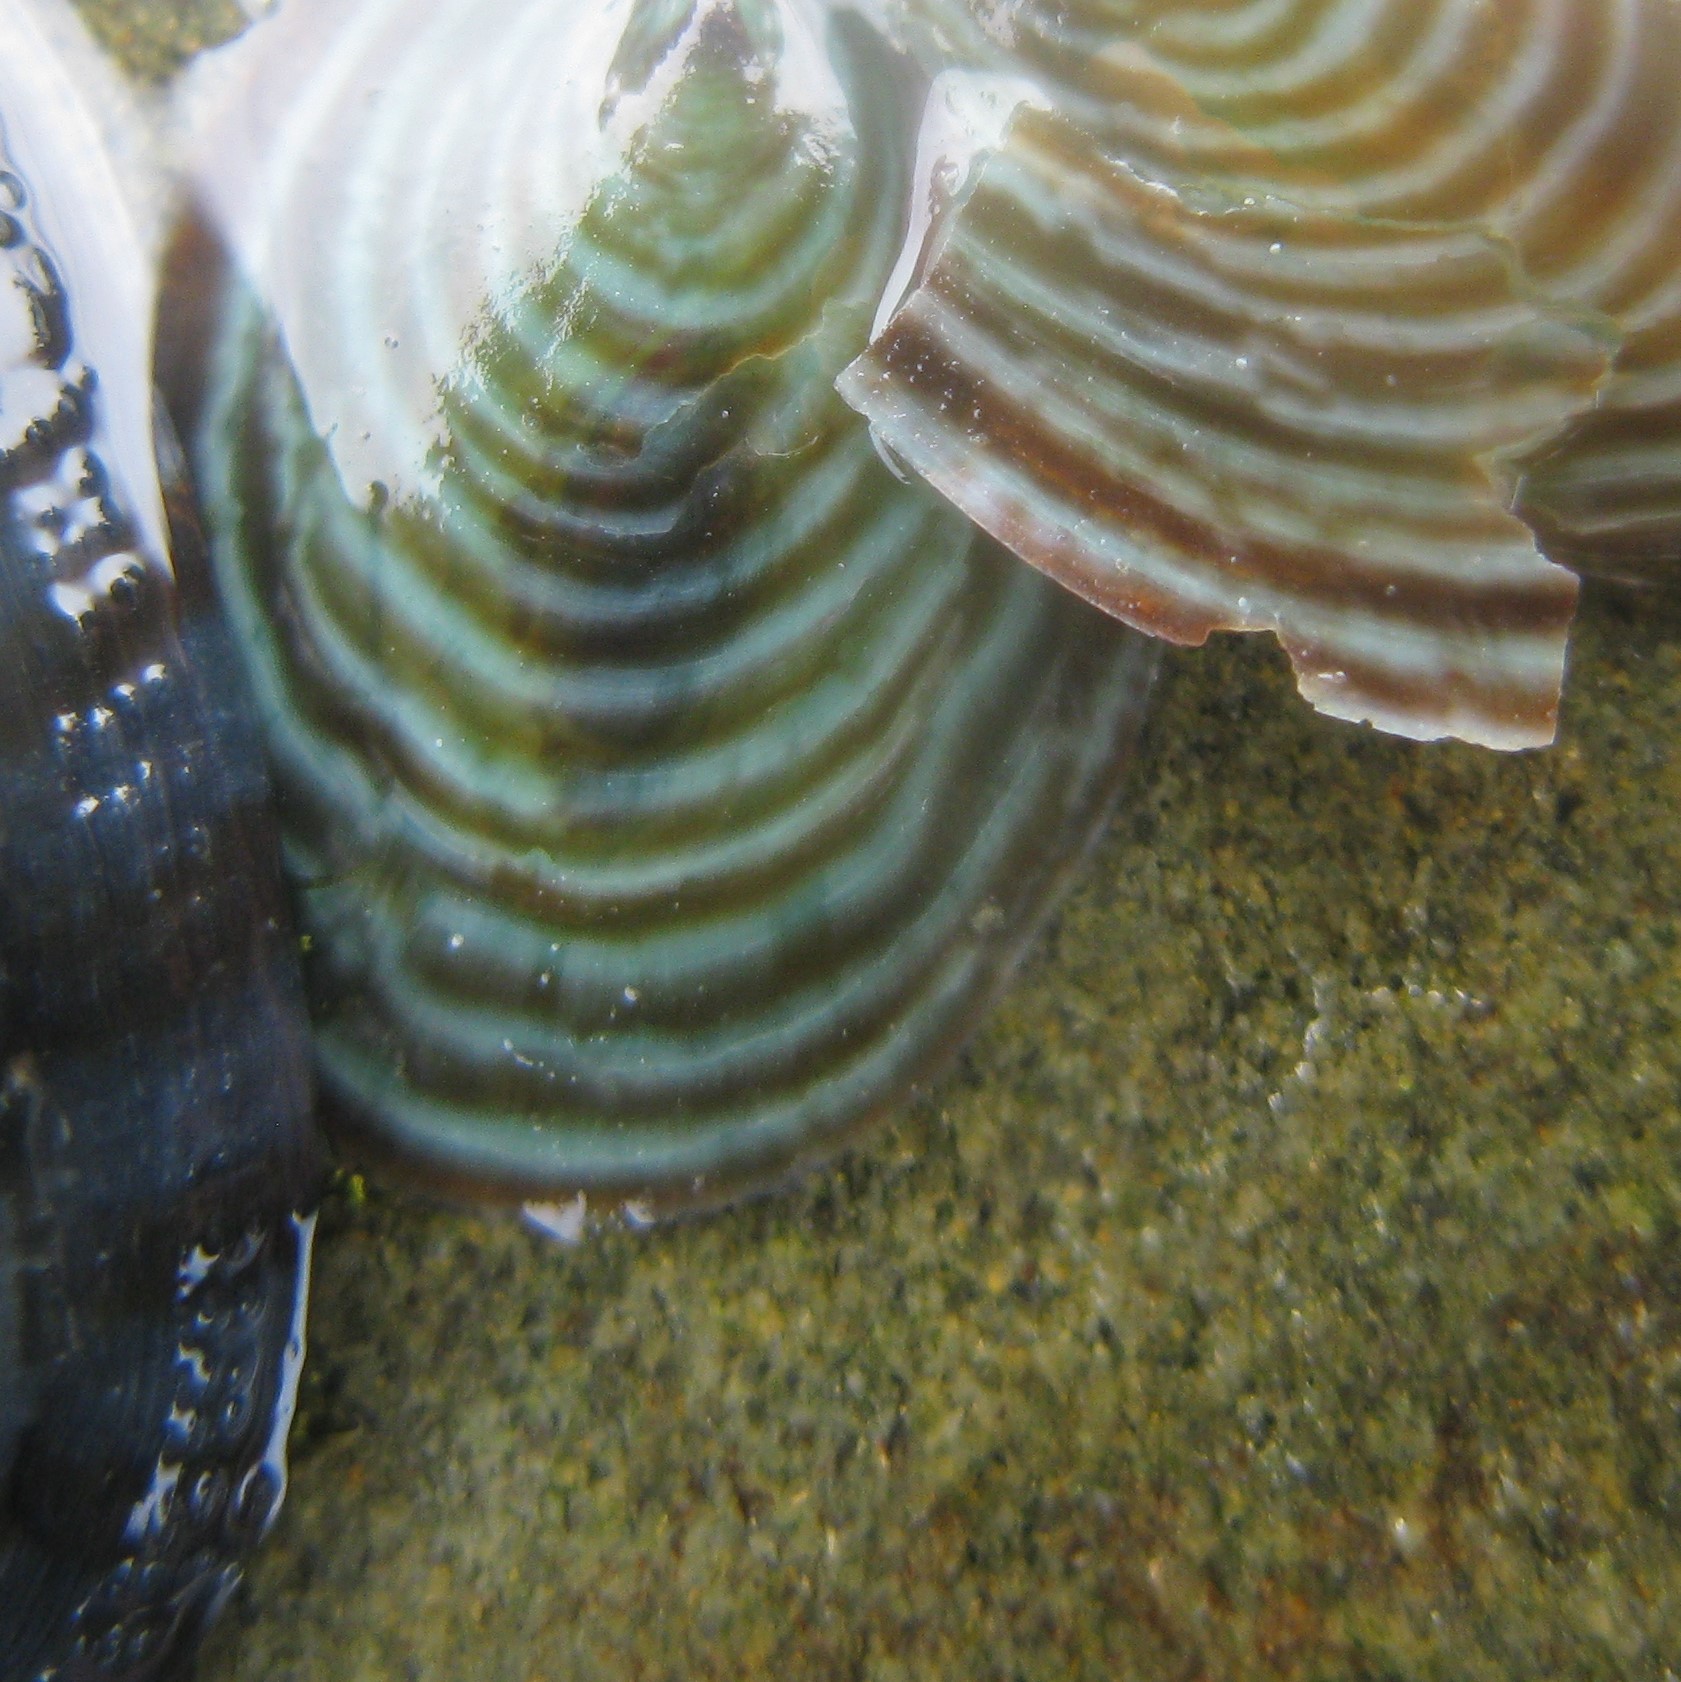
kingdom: Animalia
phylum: Mollusca
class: Gastropoda
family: Lottiidae
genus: Atalacmea
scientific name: Atalacmea fragilis
